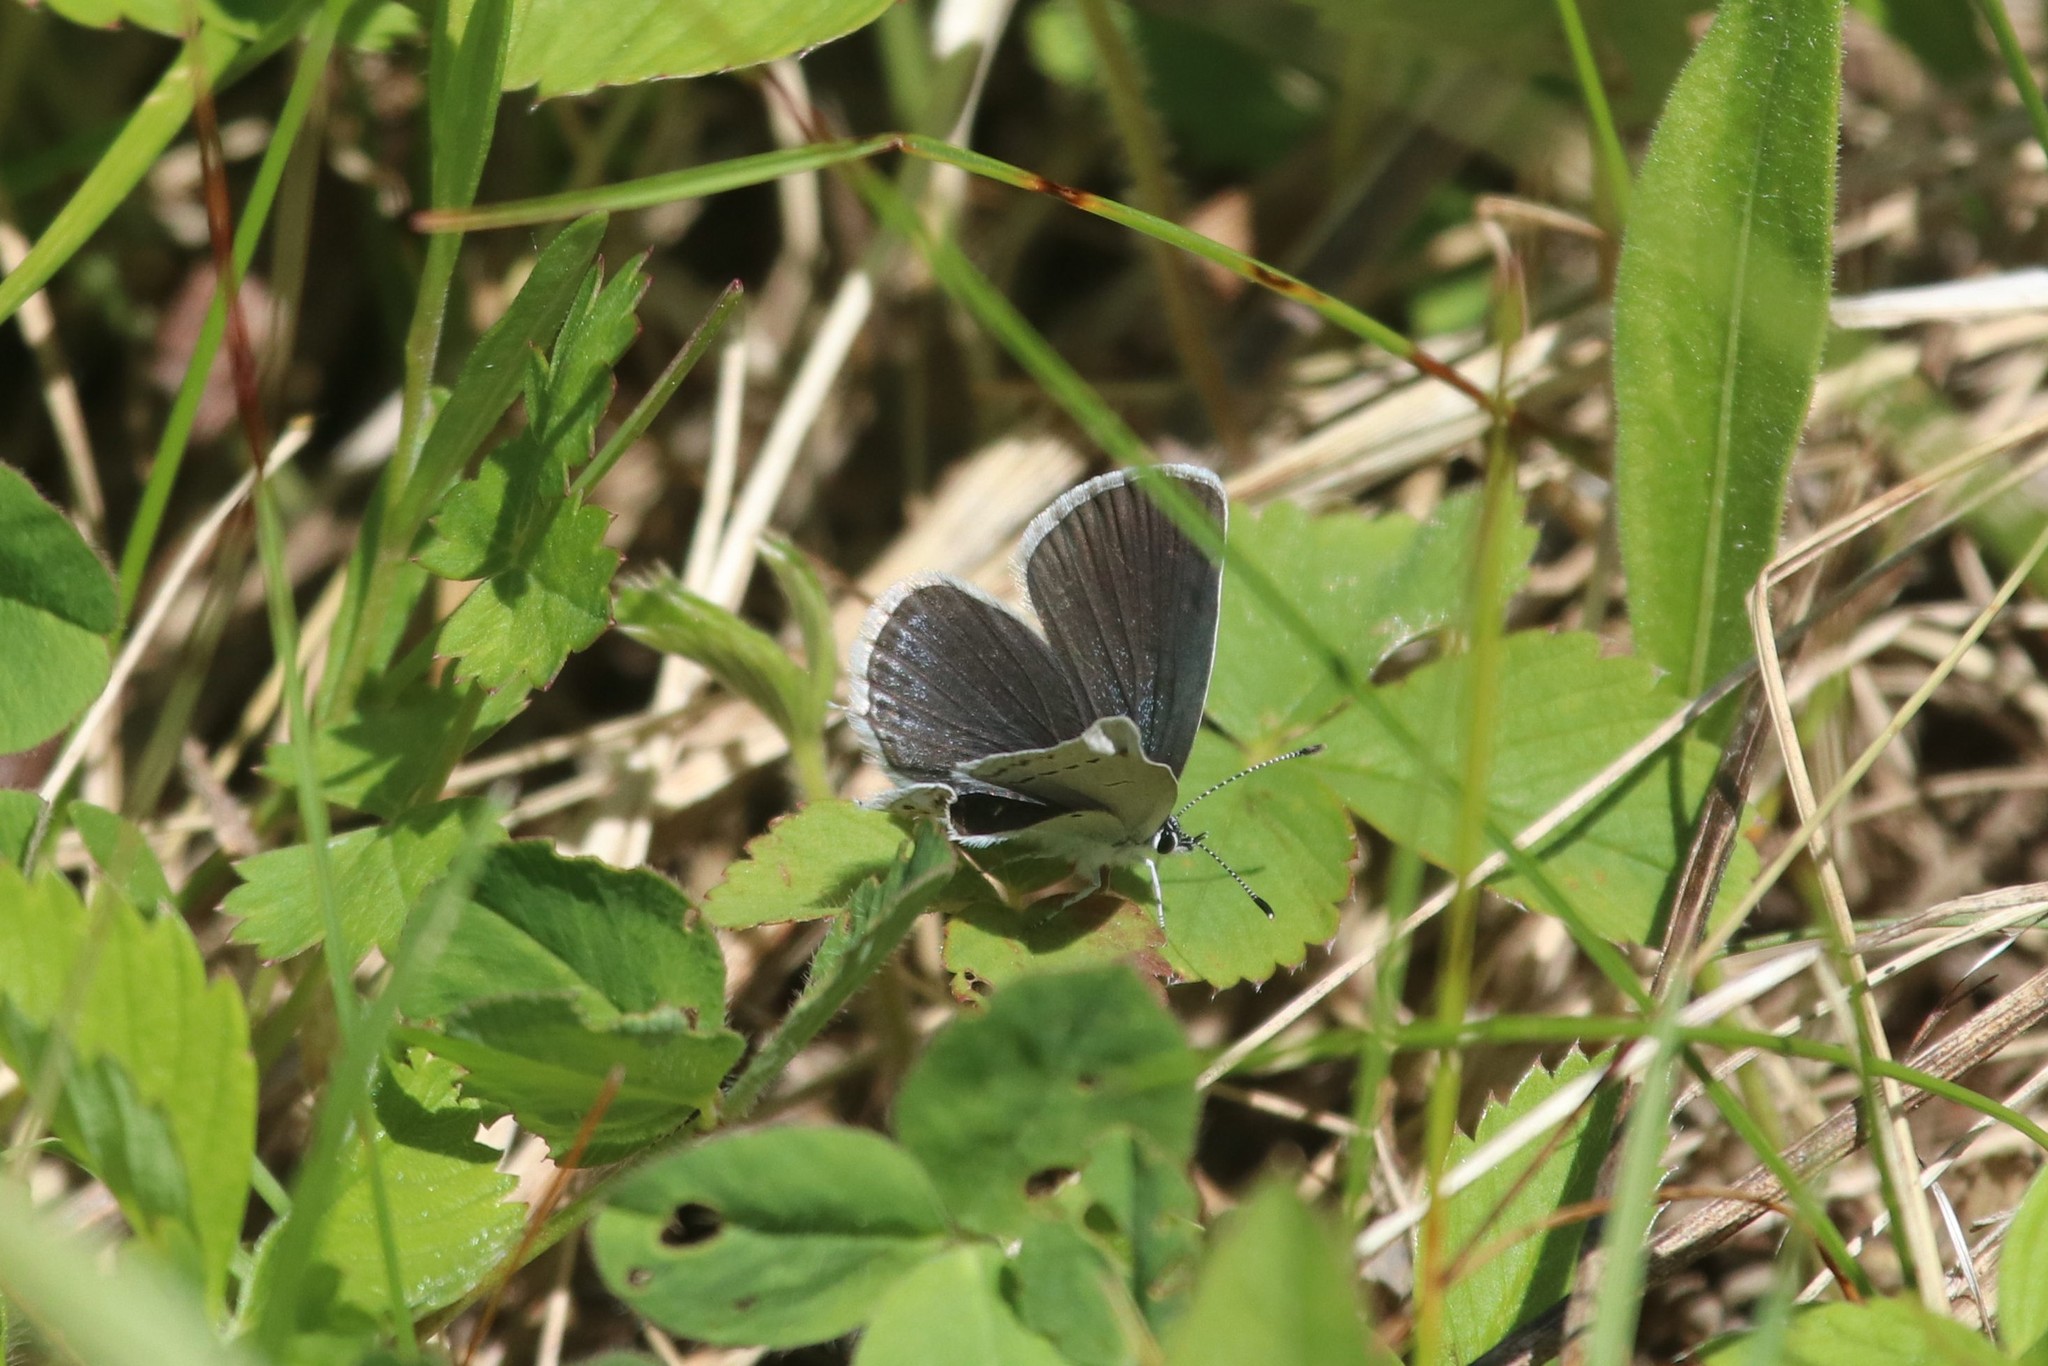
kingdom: Animalia
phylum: Arthropoda
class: Insecta
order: Lepidoptera
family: Lycaenidae
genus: Elkalyce
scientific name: Elkalyce argiades
